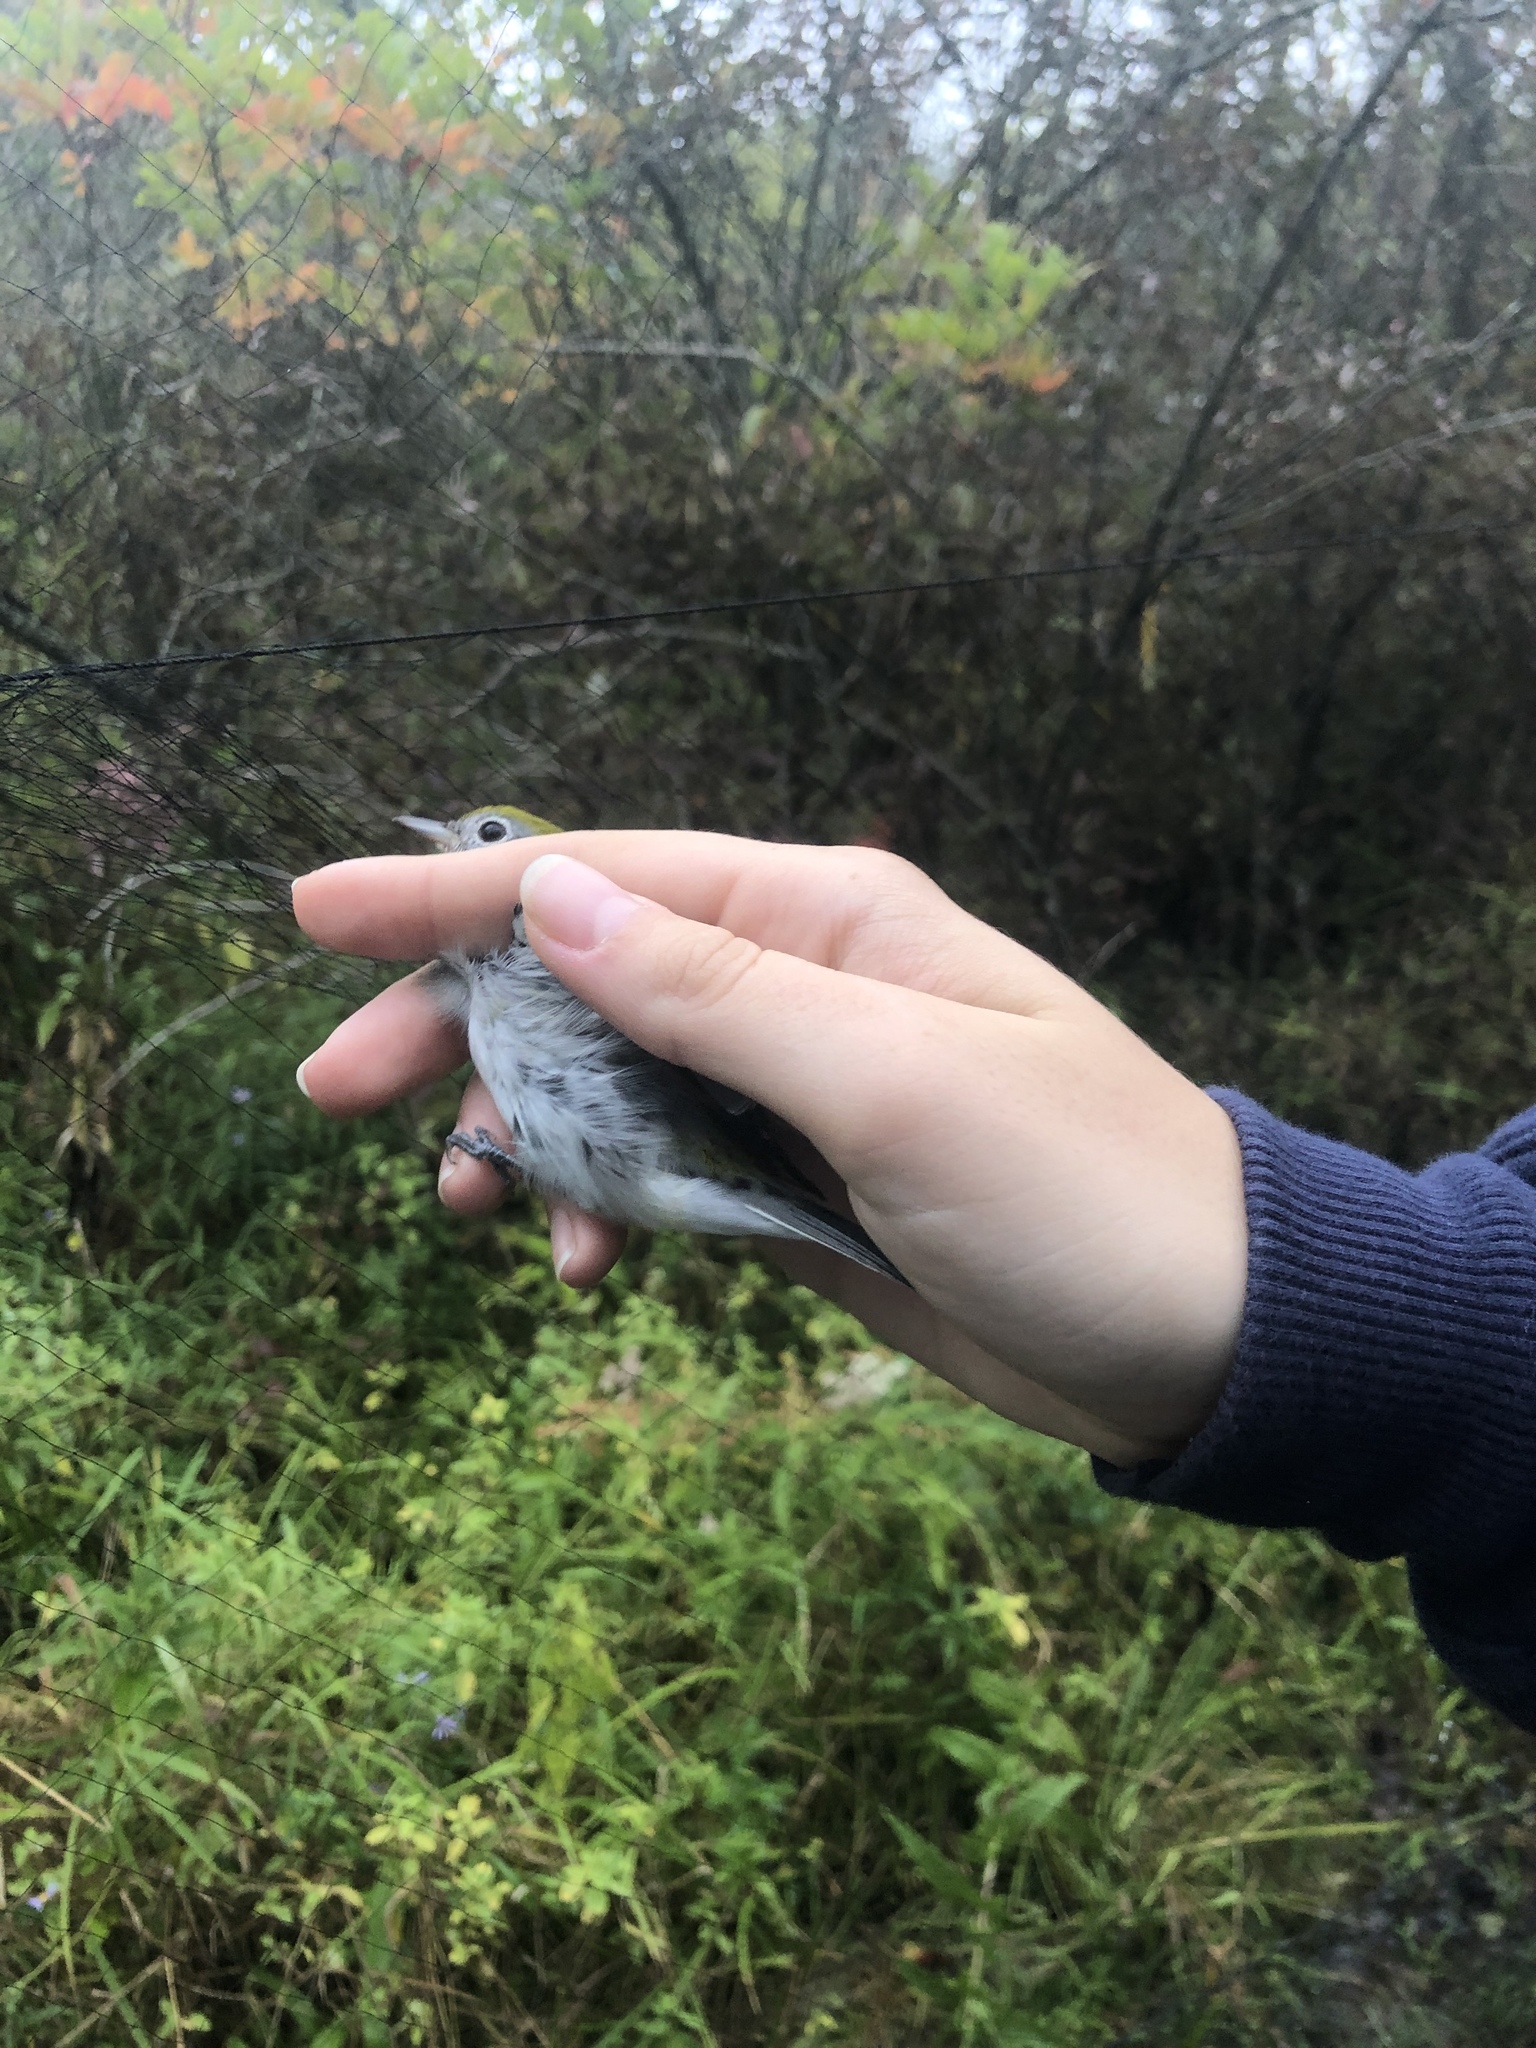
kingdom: Animalia
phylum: Chordata
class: Aves
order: Passeriformes
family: Parulidae
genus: Setophaga
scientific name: Setophaga pensylvanica
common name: Chestnut-sided warbler
